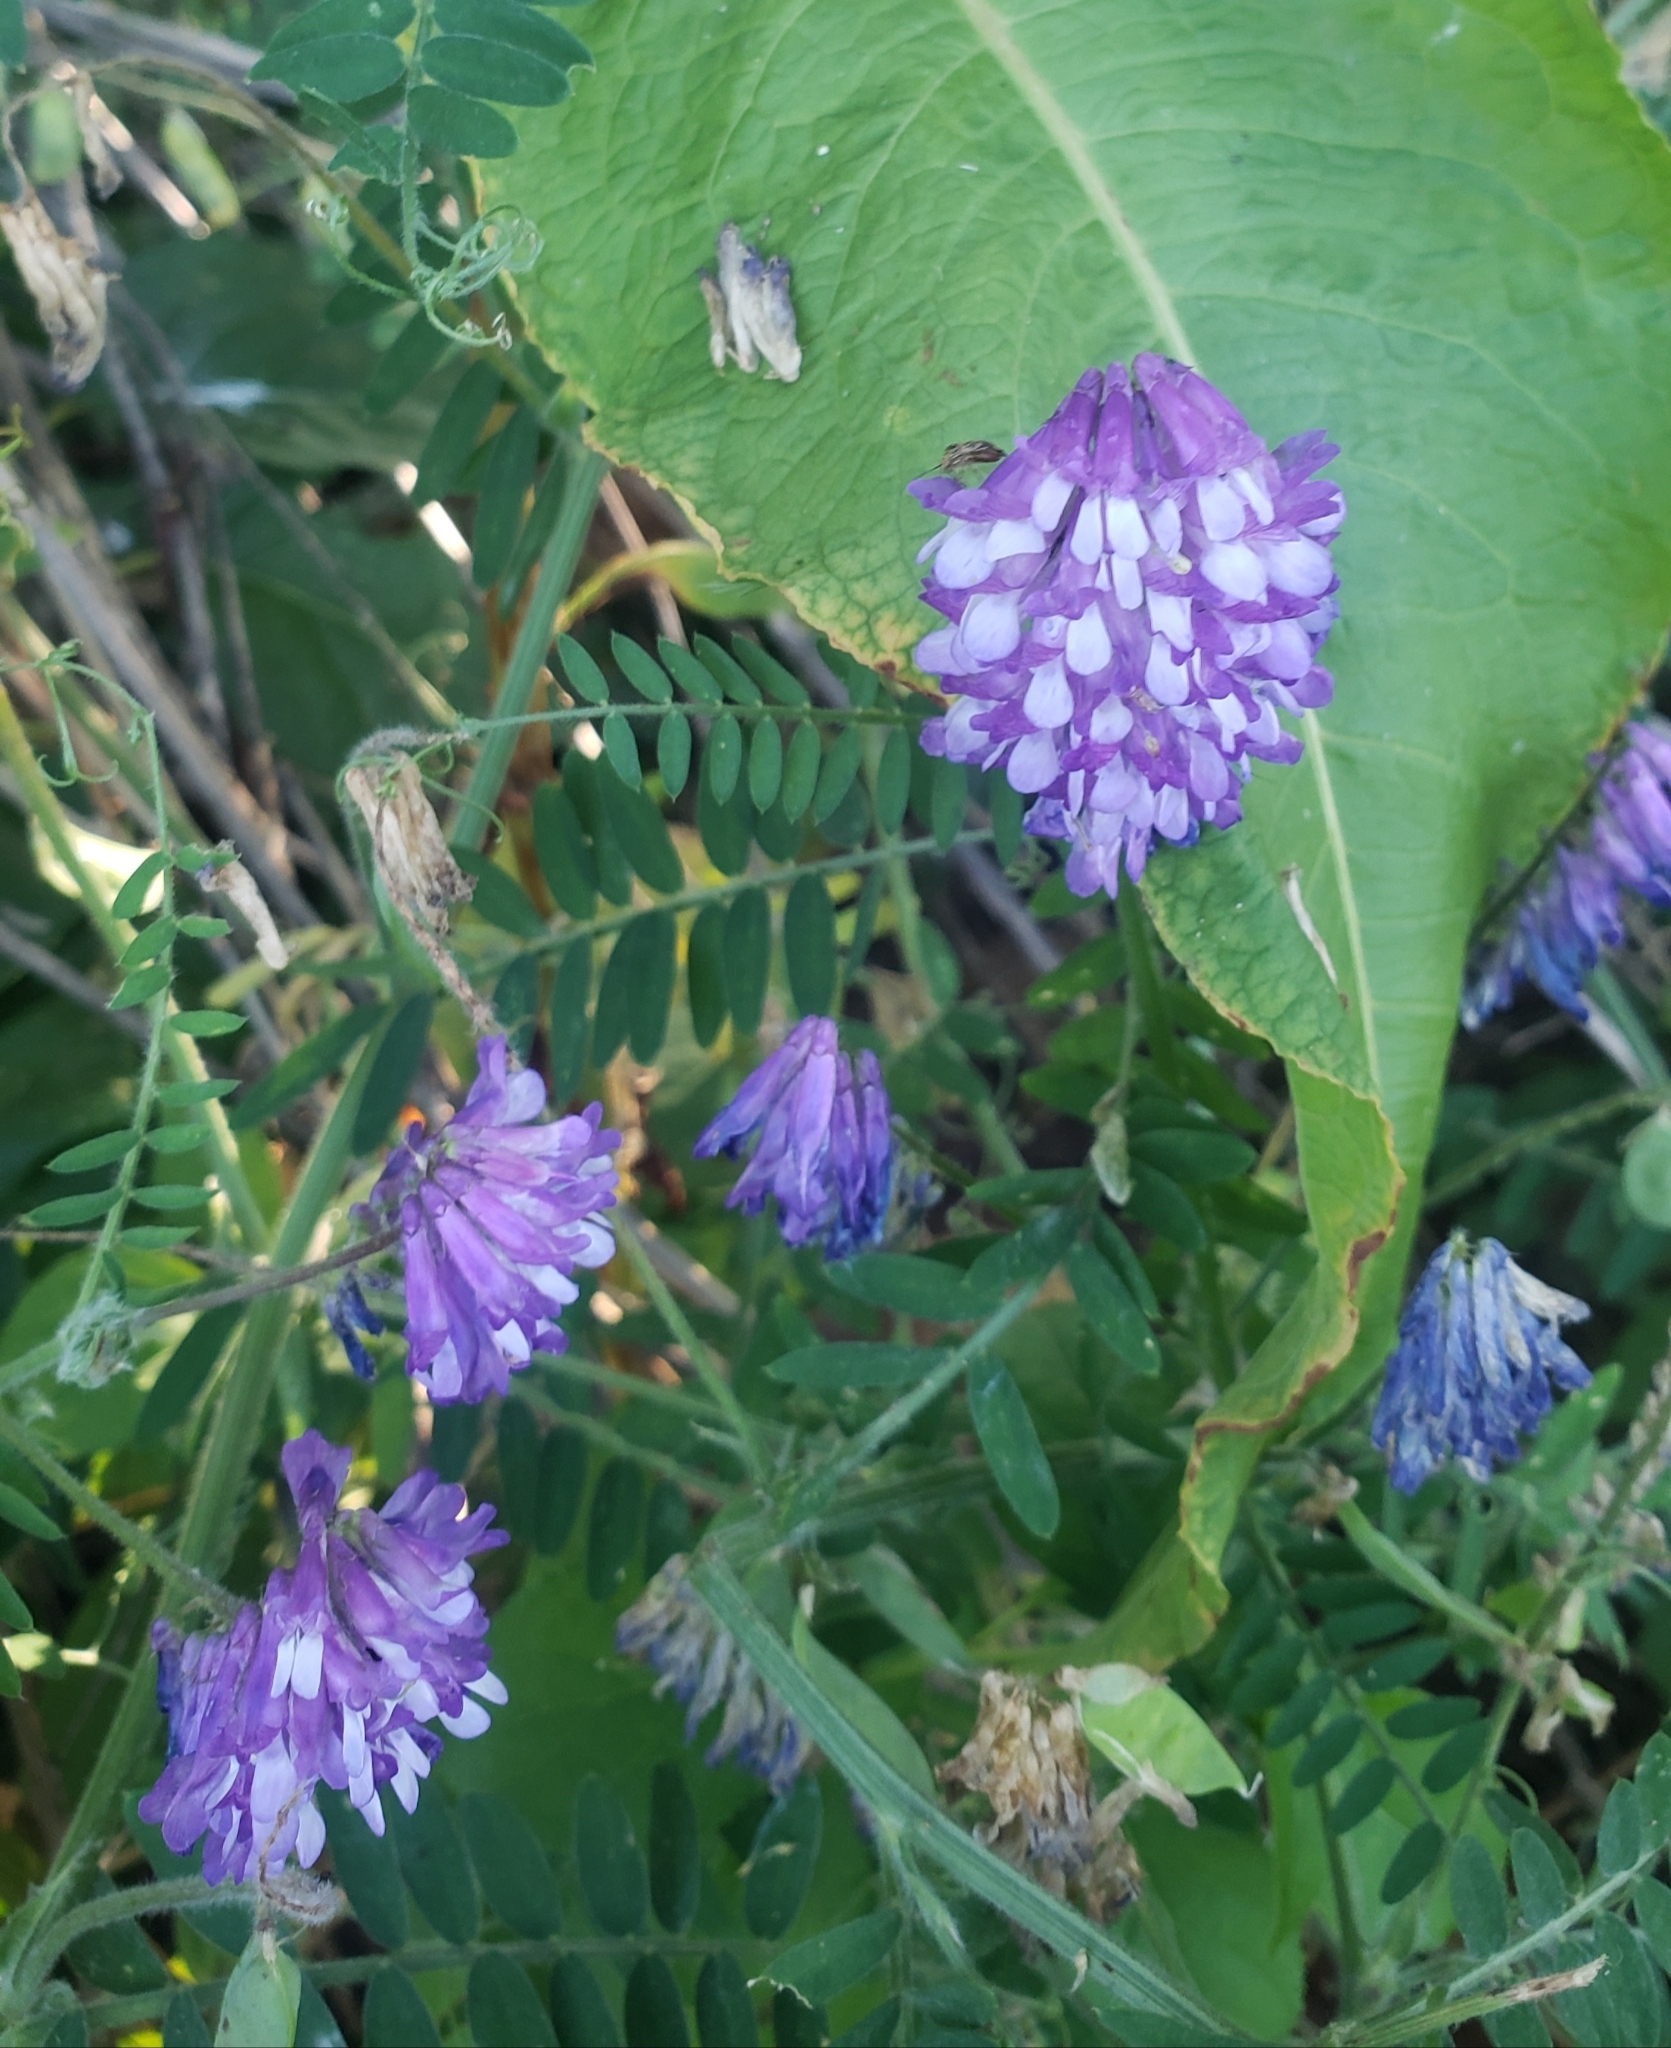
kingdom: Plantae
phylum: Tracheophyta
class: Magnoliopsida
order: Fabales
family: Fabaceae
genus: Vicia
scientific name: Vicia villosa
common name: Fodder vetch
